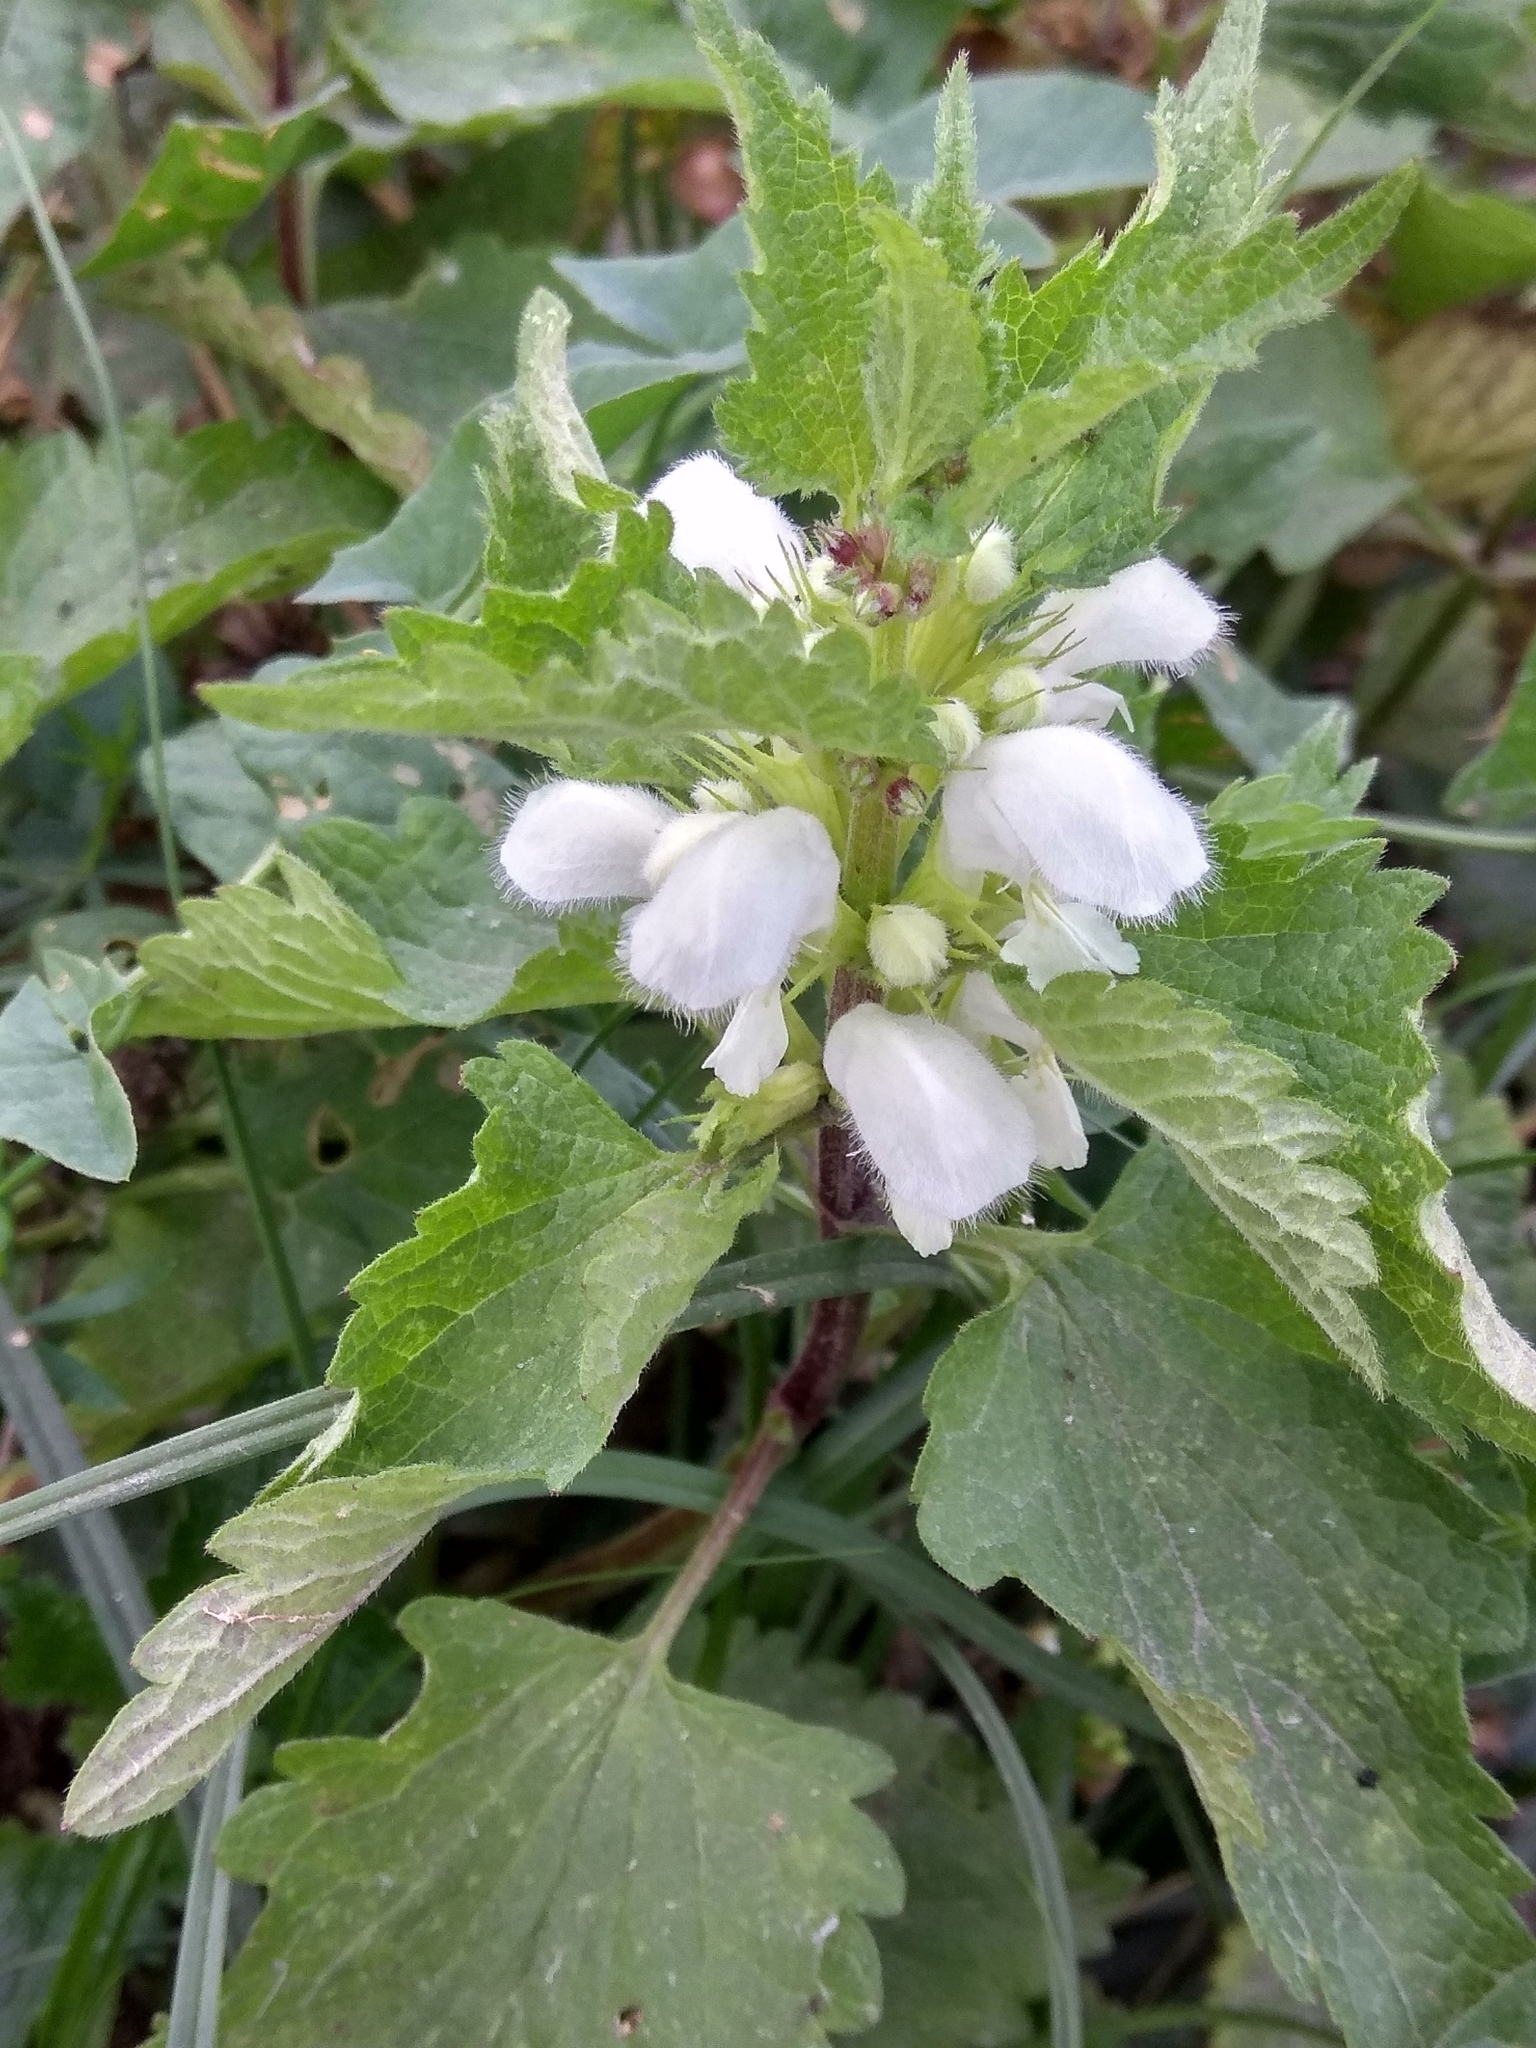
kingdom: Plantae
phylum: Tracheophyta
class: Magnoliopsida
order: Lamiales
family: Lamiaceae
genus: Lamium
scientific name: Lamium album
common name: White dead-nettle
